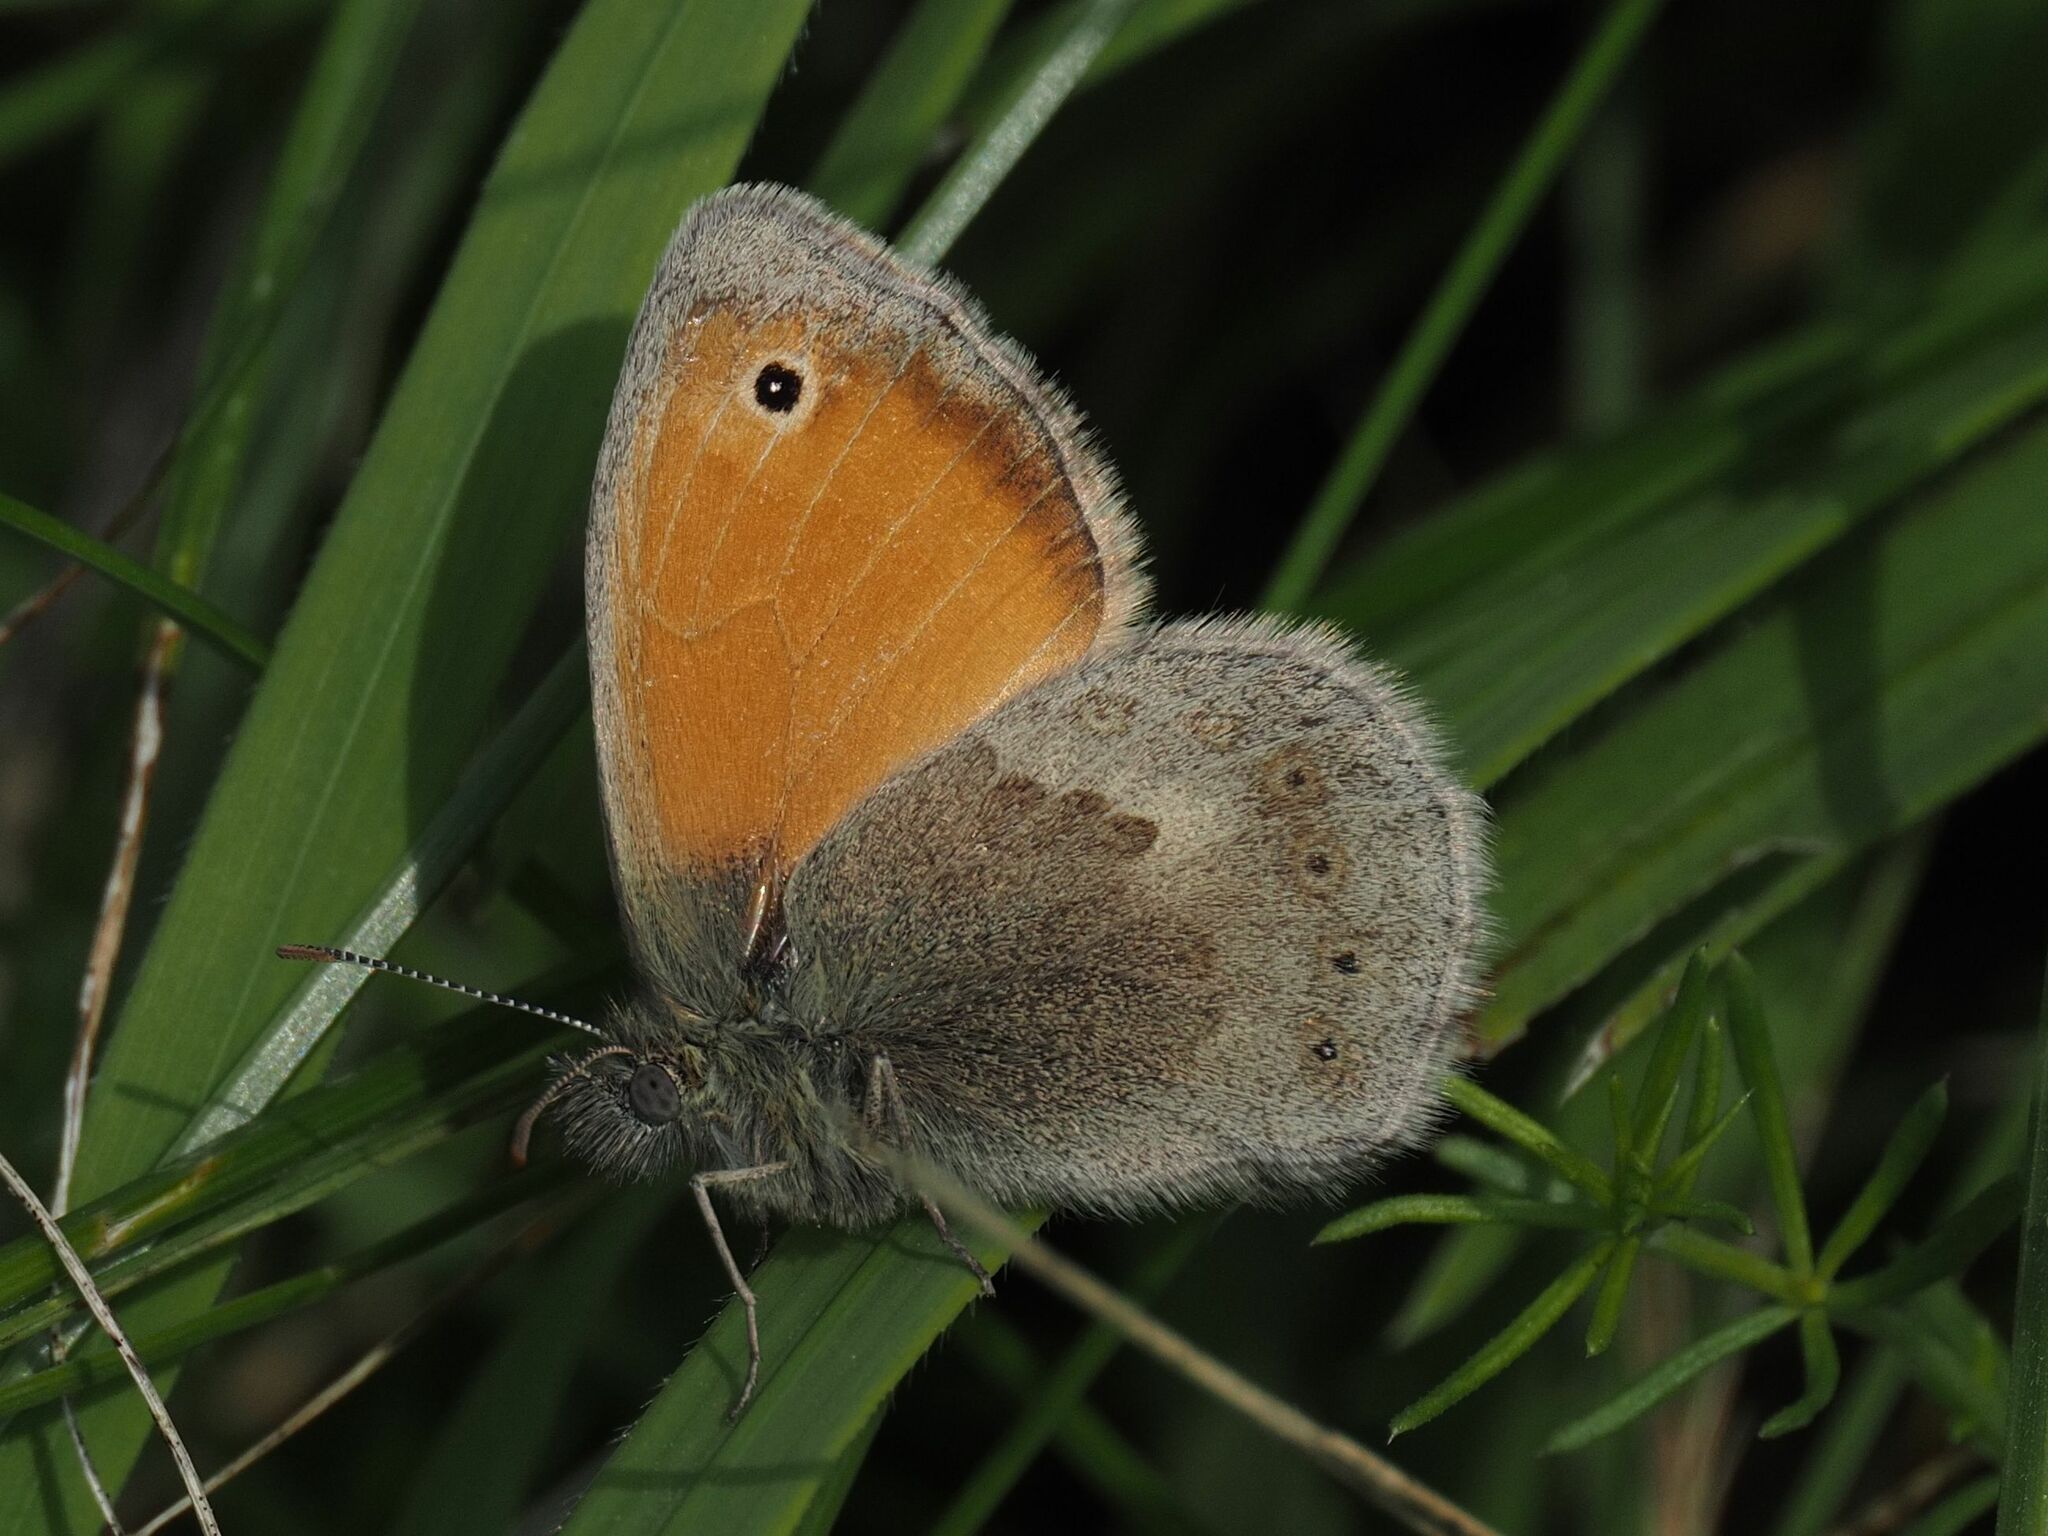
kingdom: Animalia
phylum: Arthropoda
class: Insecta
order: Lepidoptera
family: Nymphalidae
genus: Coenonympha
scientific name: Coenonympha pamphilus
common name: Small heath
